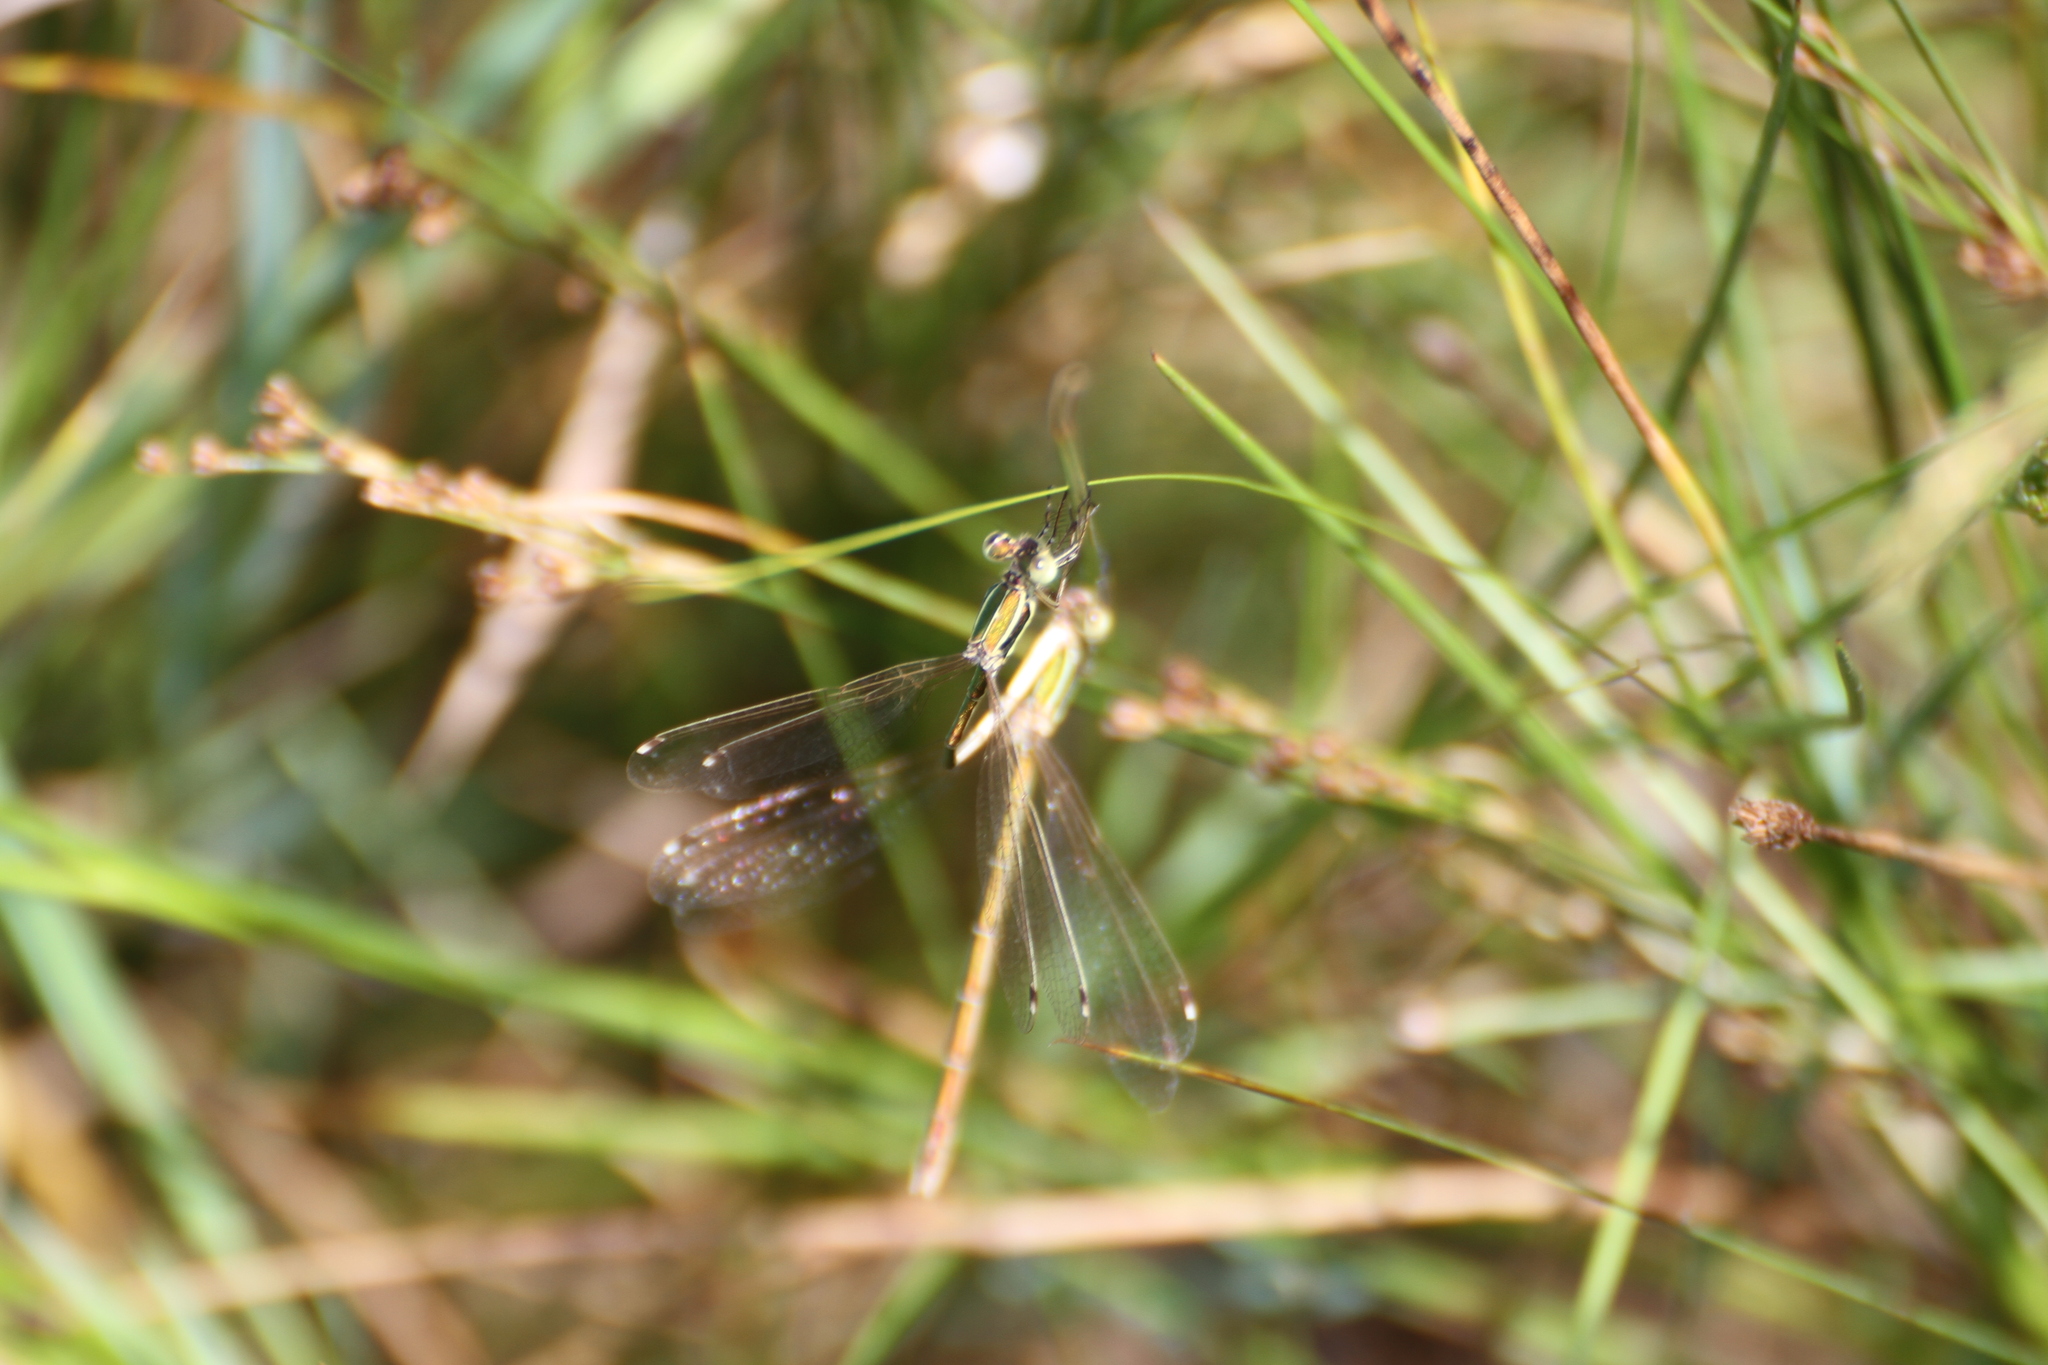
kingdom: Animalia
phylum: Arthropoda
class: Insecta
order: Odonata
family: Lestidae
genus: Lestes
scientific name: Lestes barbarus
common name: Migrant spreadwing
